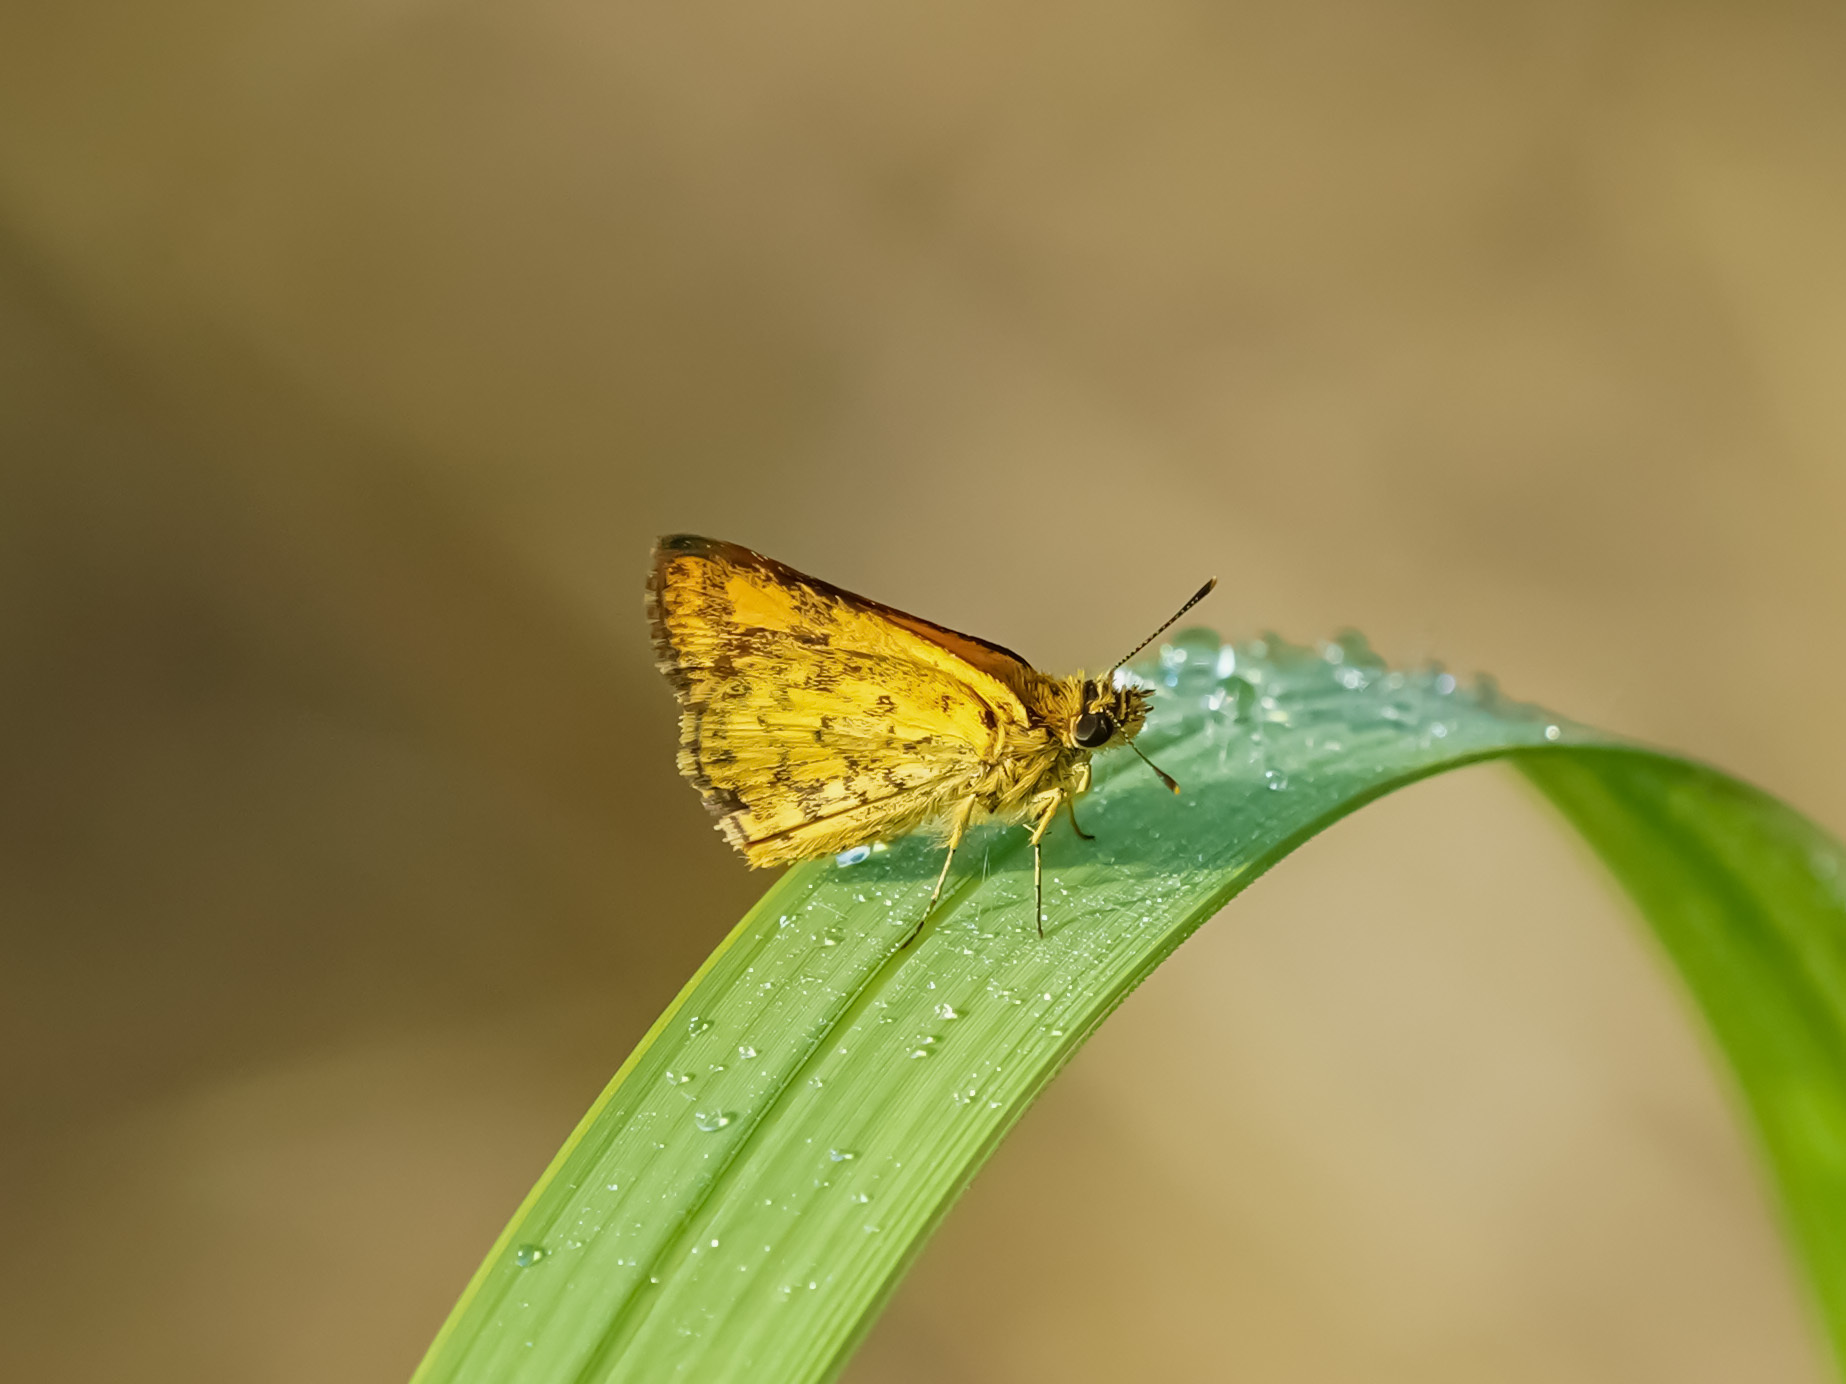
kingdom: Animalia
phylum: Arthropoda
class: Insecta
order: Lepidoptera
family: Hesperiidae
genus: Ampittia
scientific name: Ampittia dioscorides
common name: Common bush hopper
